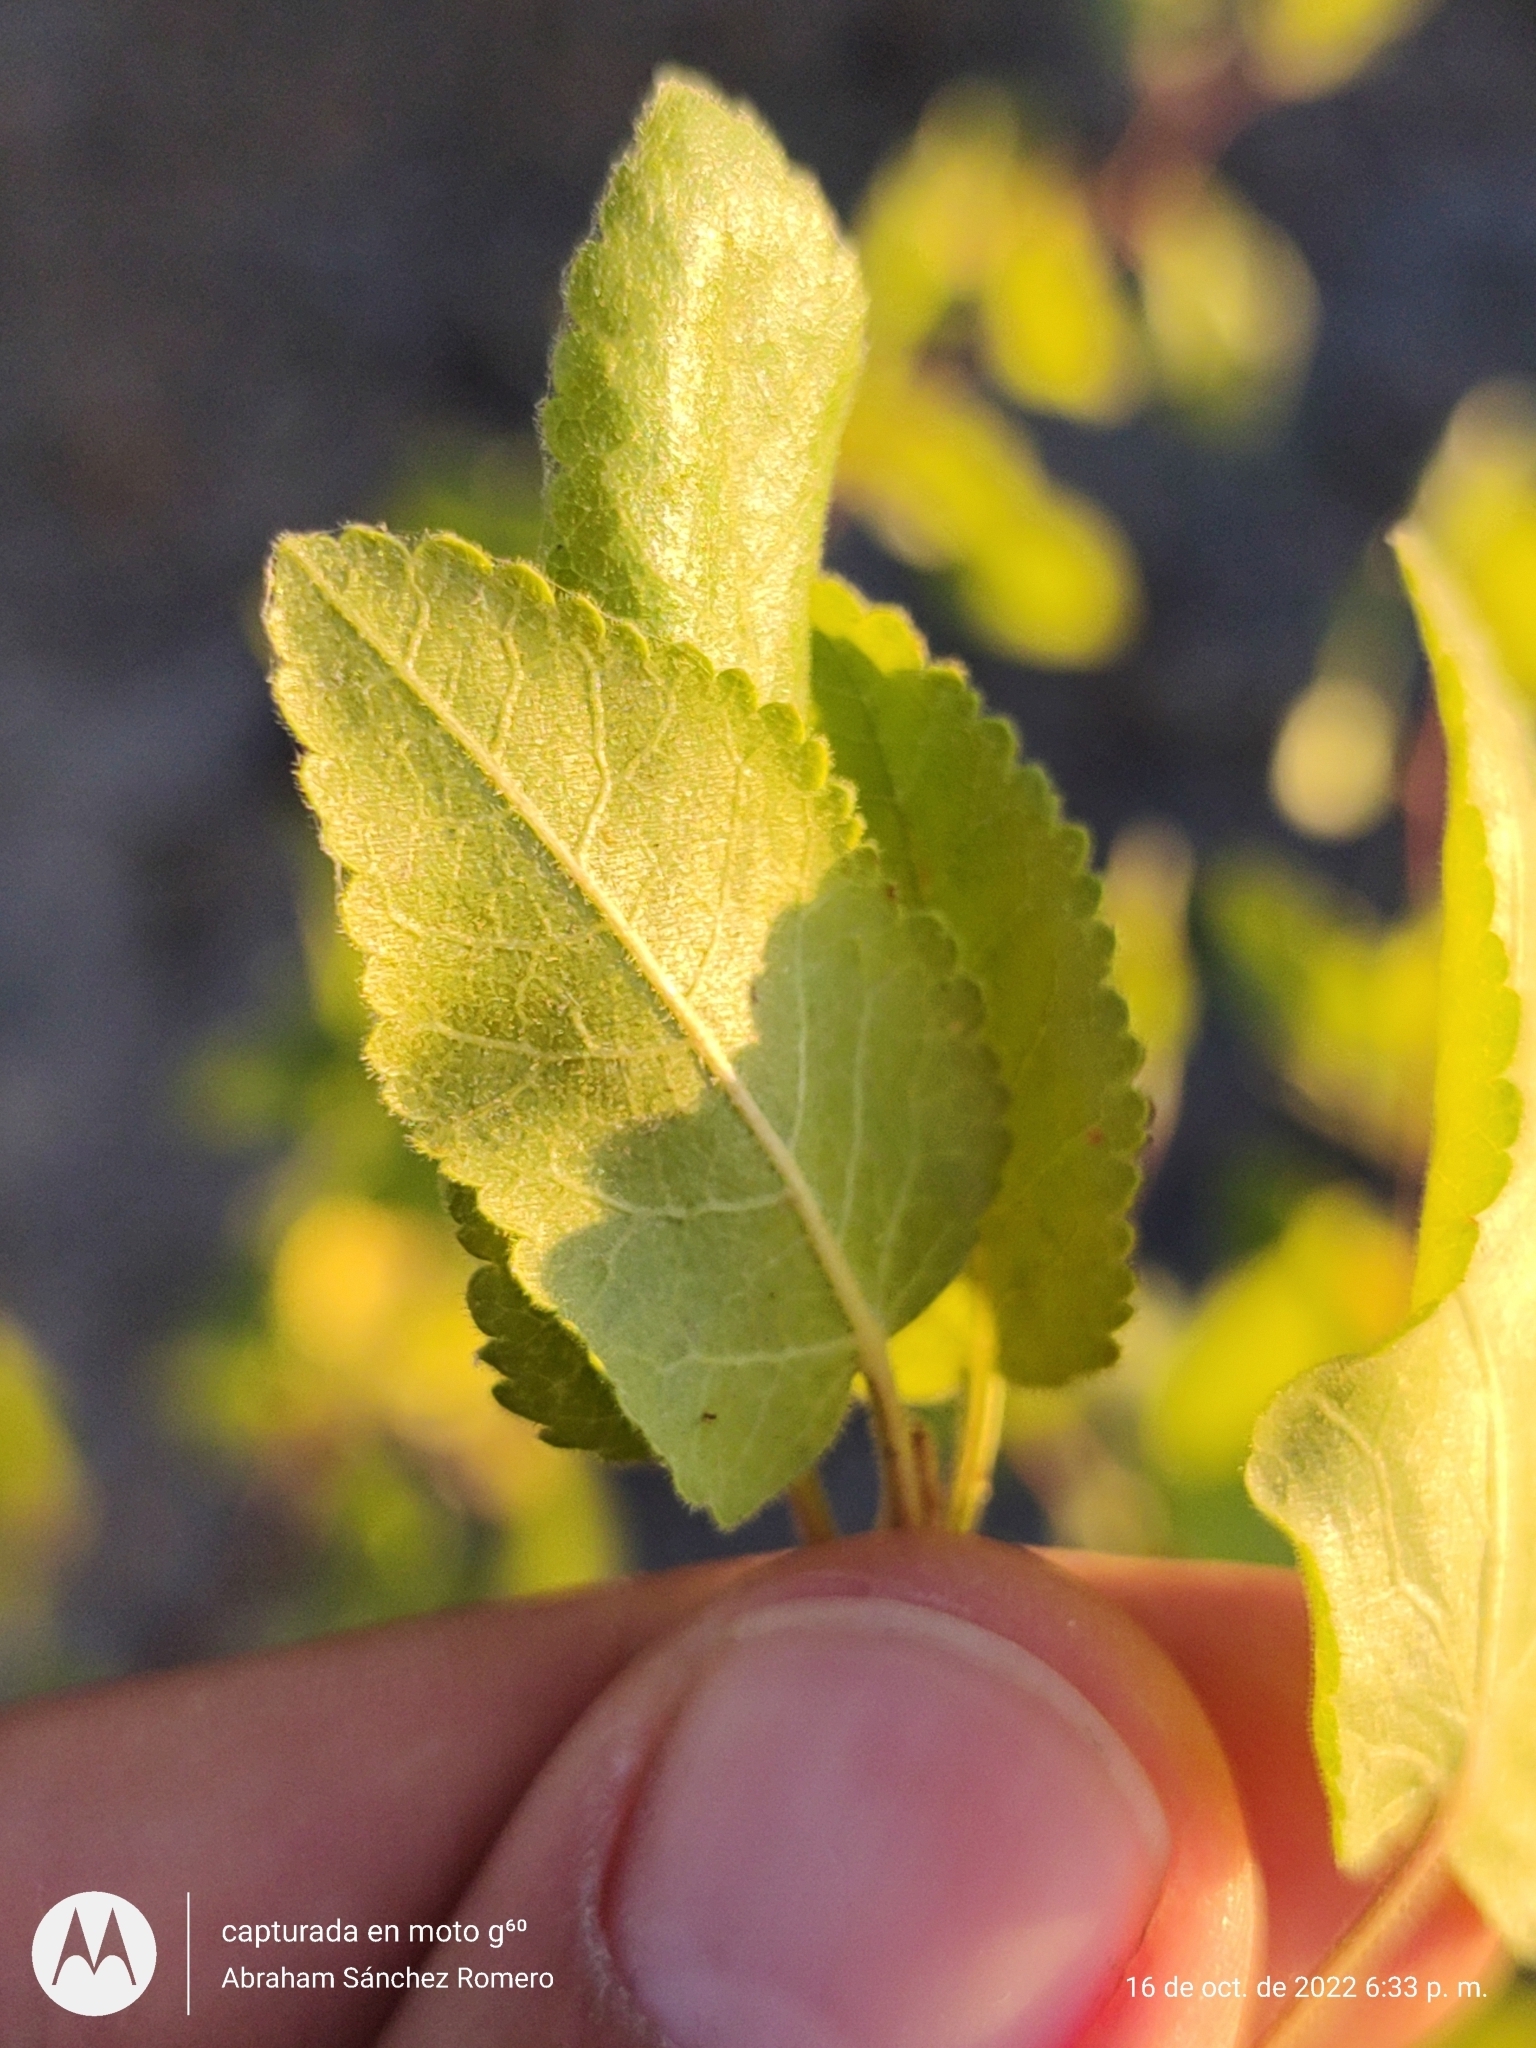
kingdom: Plantae
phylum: Tracheophyta
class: Magnoliopsida
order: Sapindales
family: Burseraceae
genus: Bursera
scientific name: Bursera epinnata
